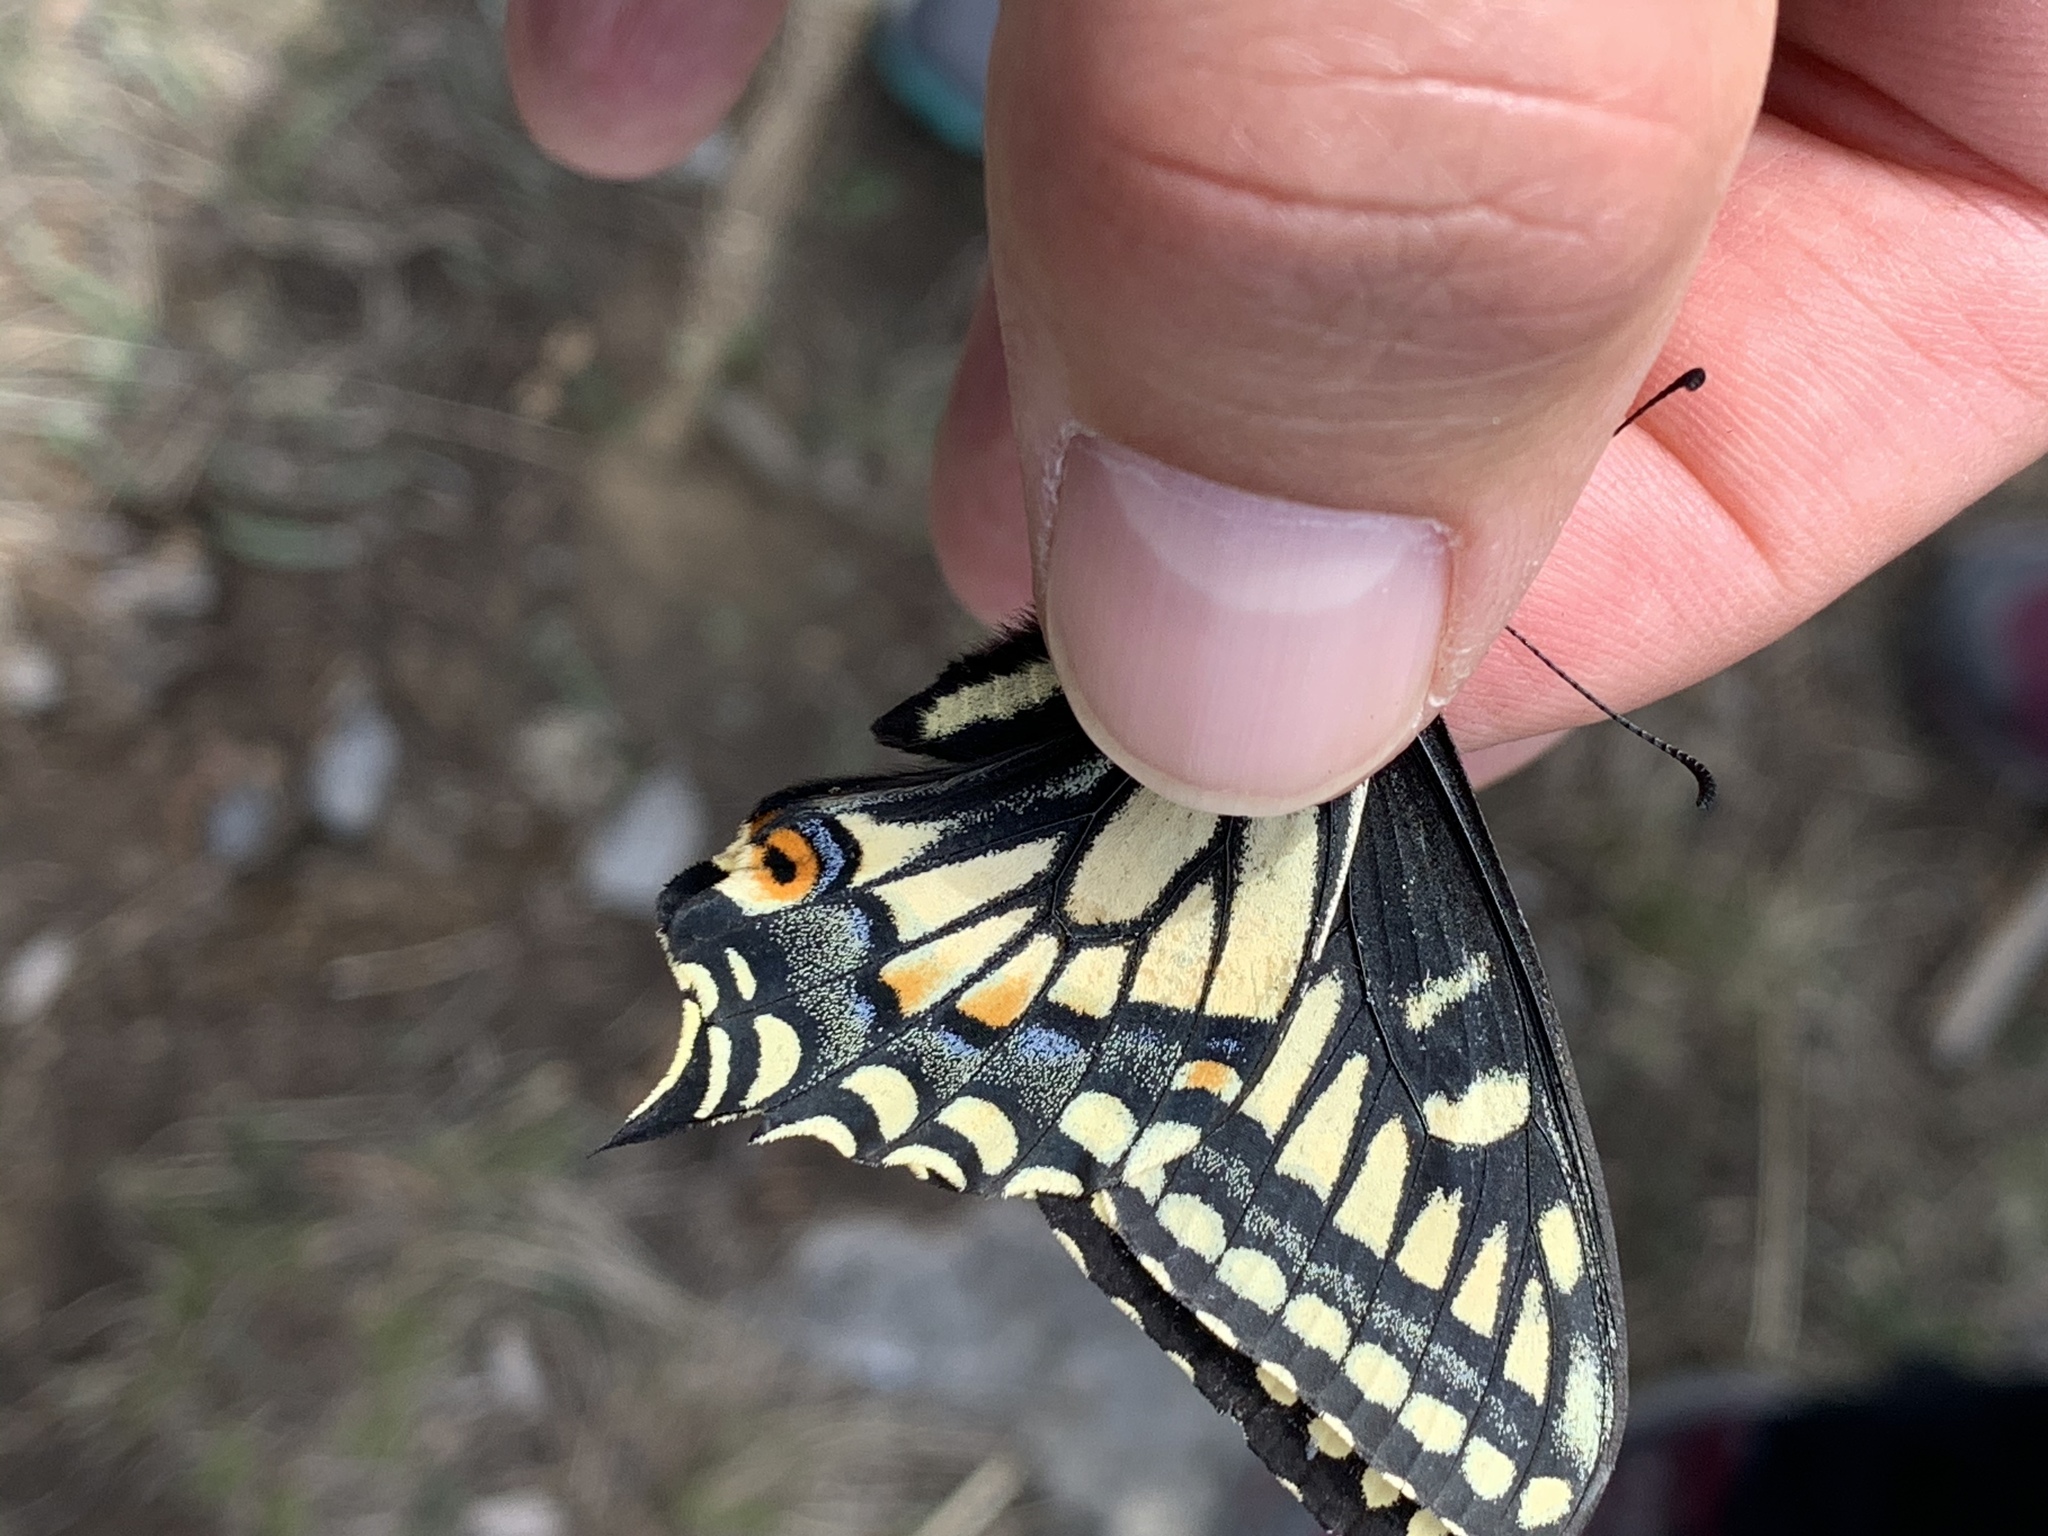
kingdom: Animalia
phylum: Arthropoda
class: Insecta
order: Lepidoptera
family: Papilionidae
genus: Papilio
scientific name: Papilio zelicaon
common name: Anise swallowtail
